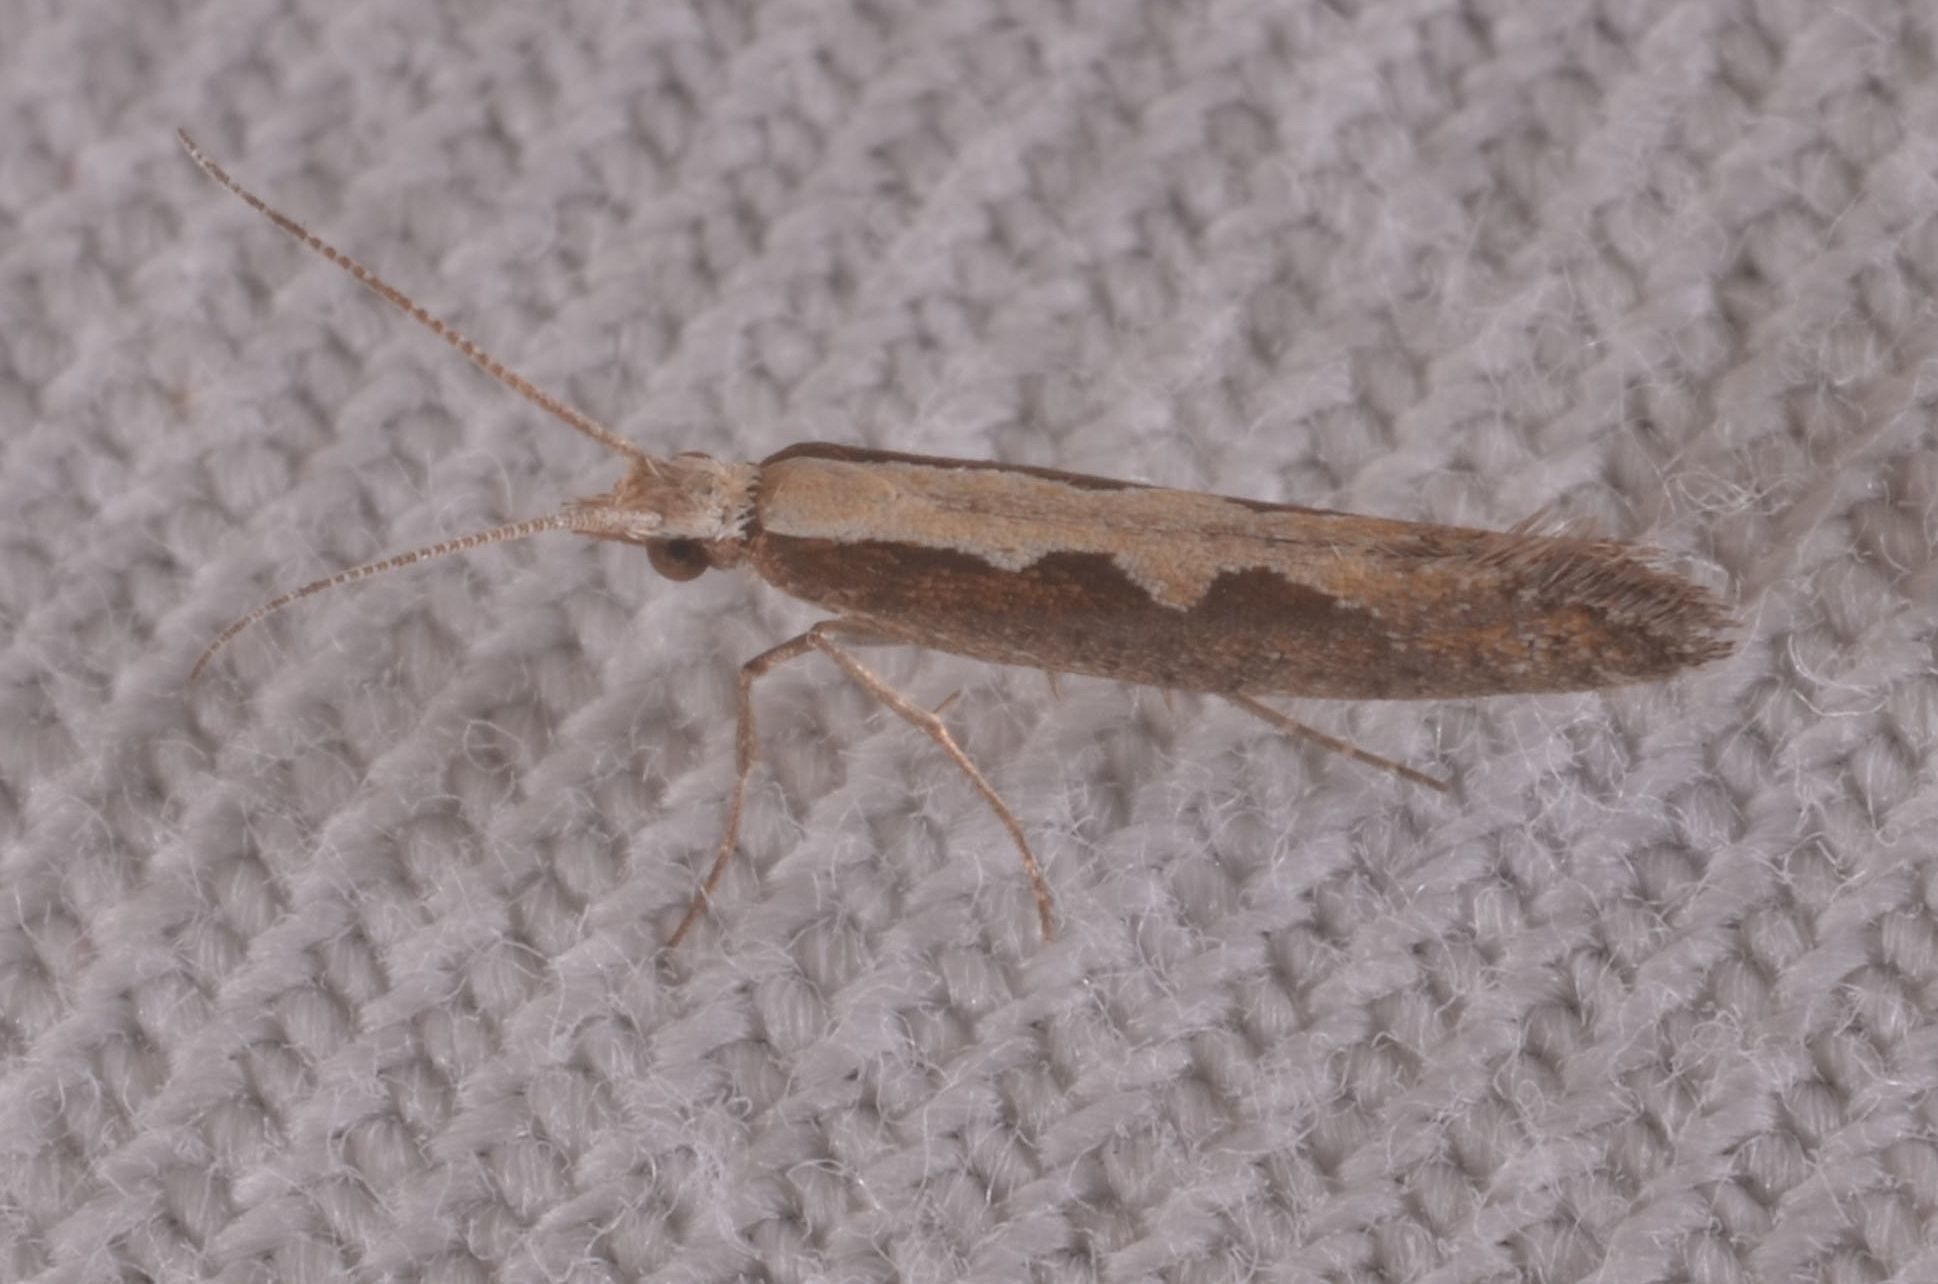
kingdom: Animalia
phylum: Arthropoda
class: Insecta
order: Lepidoptera
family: Plutellidae
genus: Plutella
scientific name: Plutella xylostella
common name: Diamond-back moth
